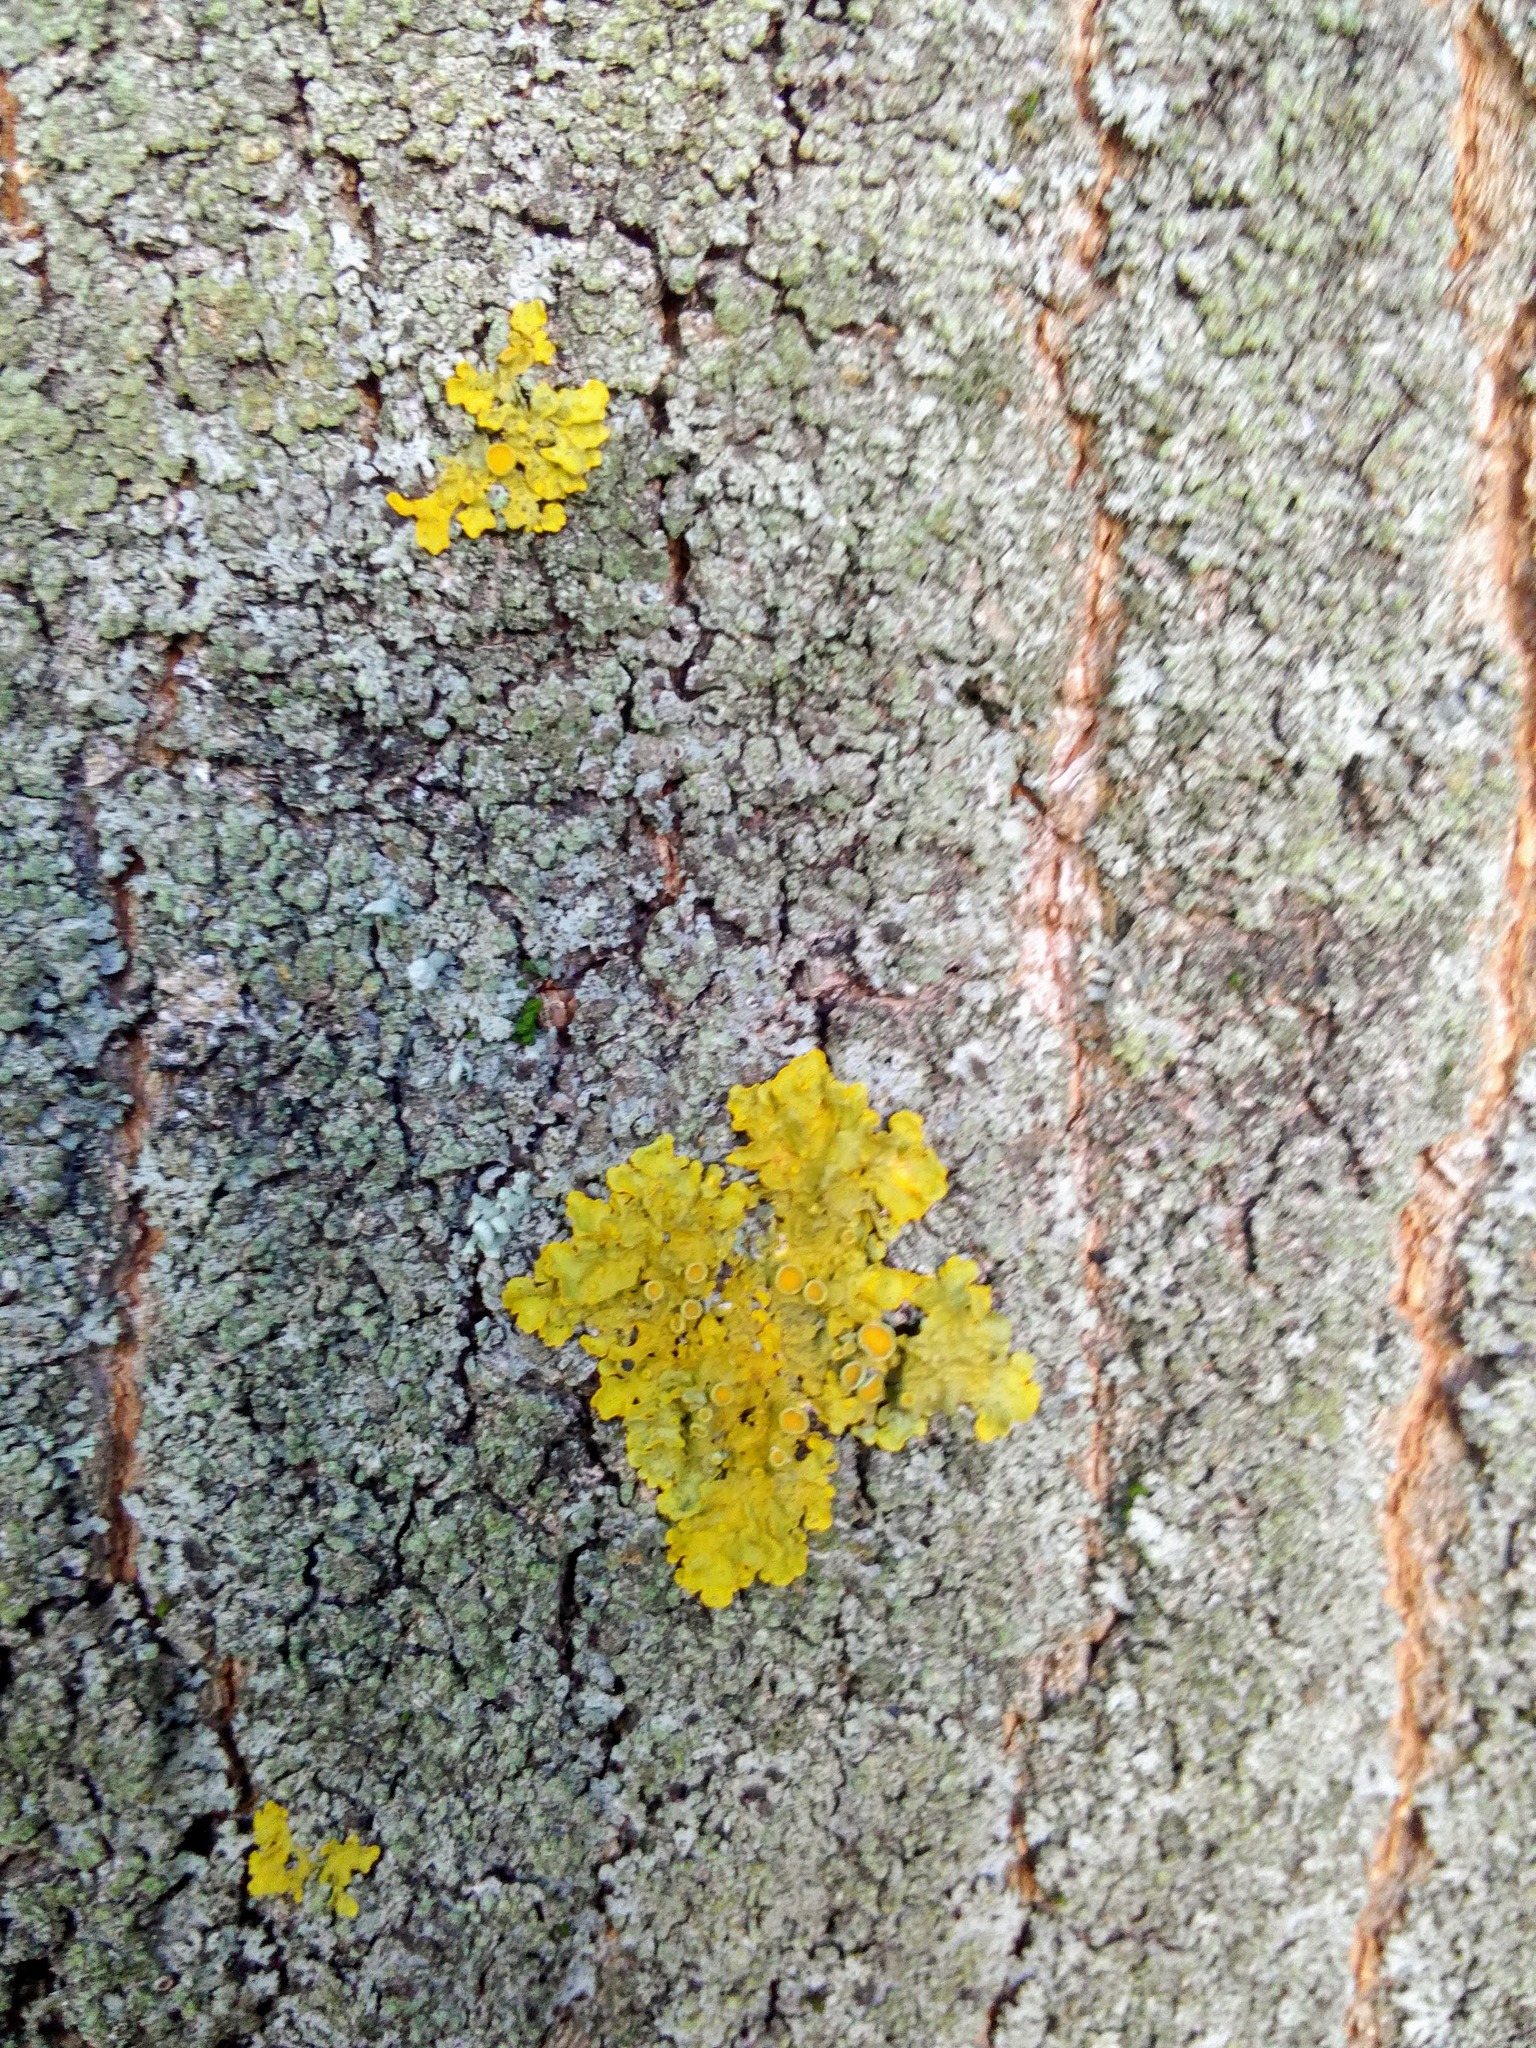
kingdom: Fungi
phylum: Ascomycota
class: Lecanoromycetes
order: Teloschistales
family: Teloschistaceae
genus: Xanthoria
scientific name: Xanthoria parietina
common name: Common orange lichen
